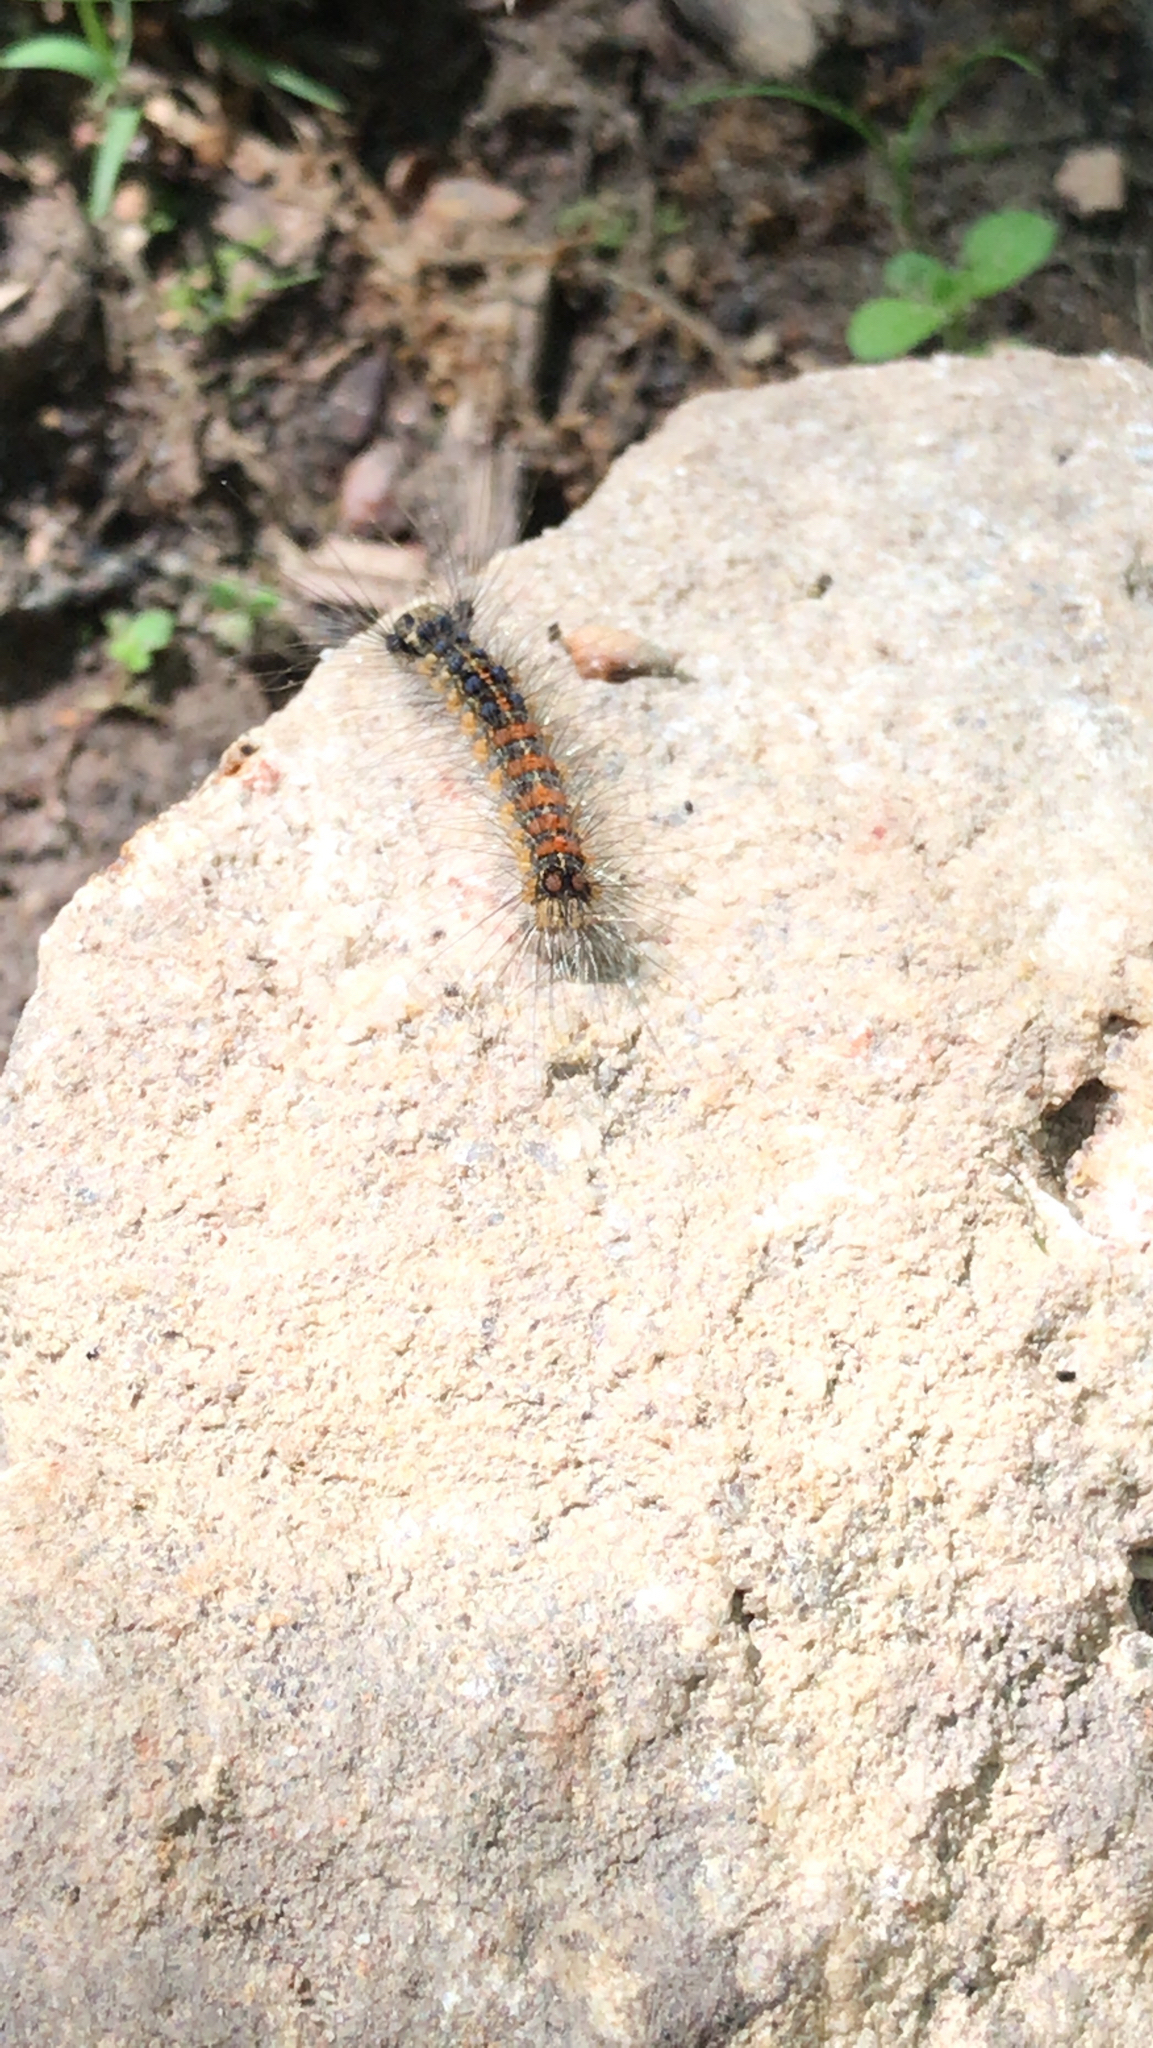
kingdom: Animalia
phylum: Arthropoda
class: Insecta
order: Lepidoptera
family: Erebidae
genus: Lymantria
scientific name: Lymantria dispar
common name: Gypsy moth
